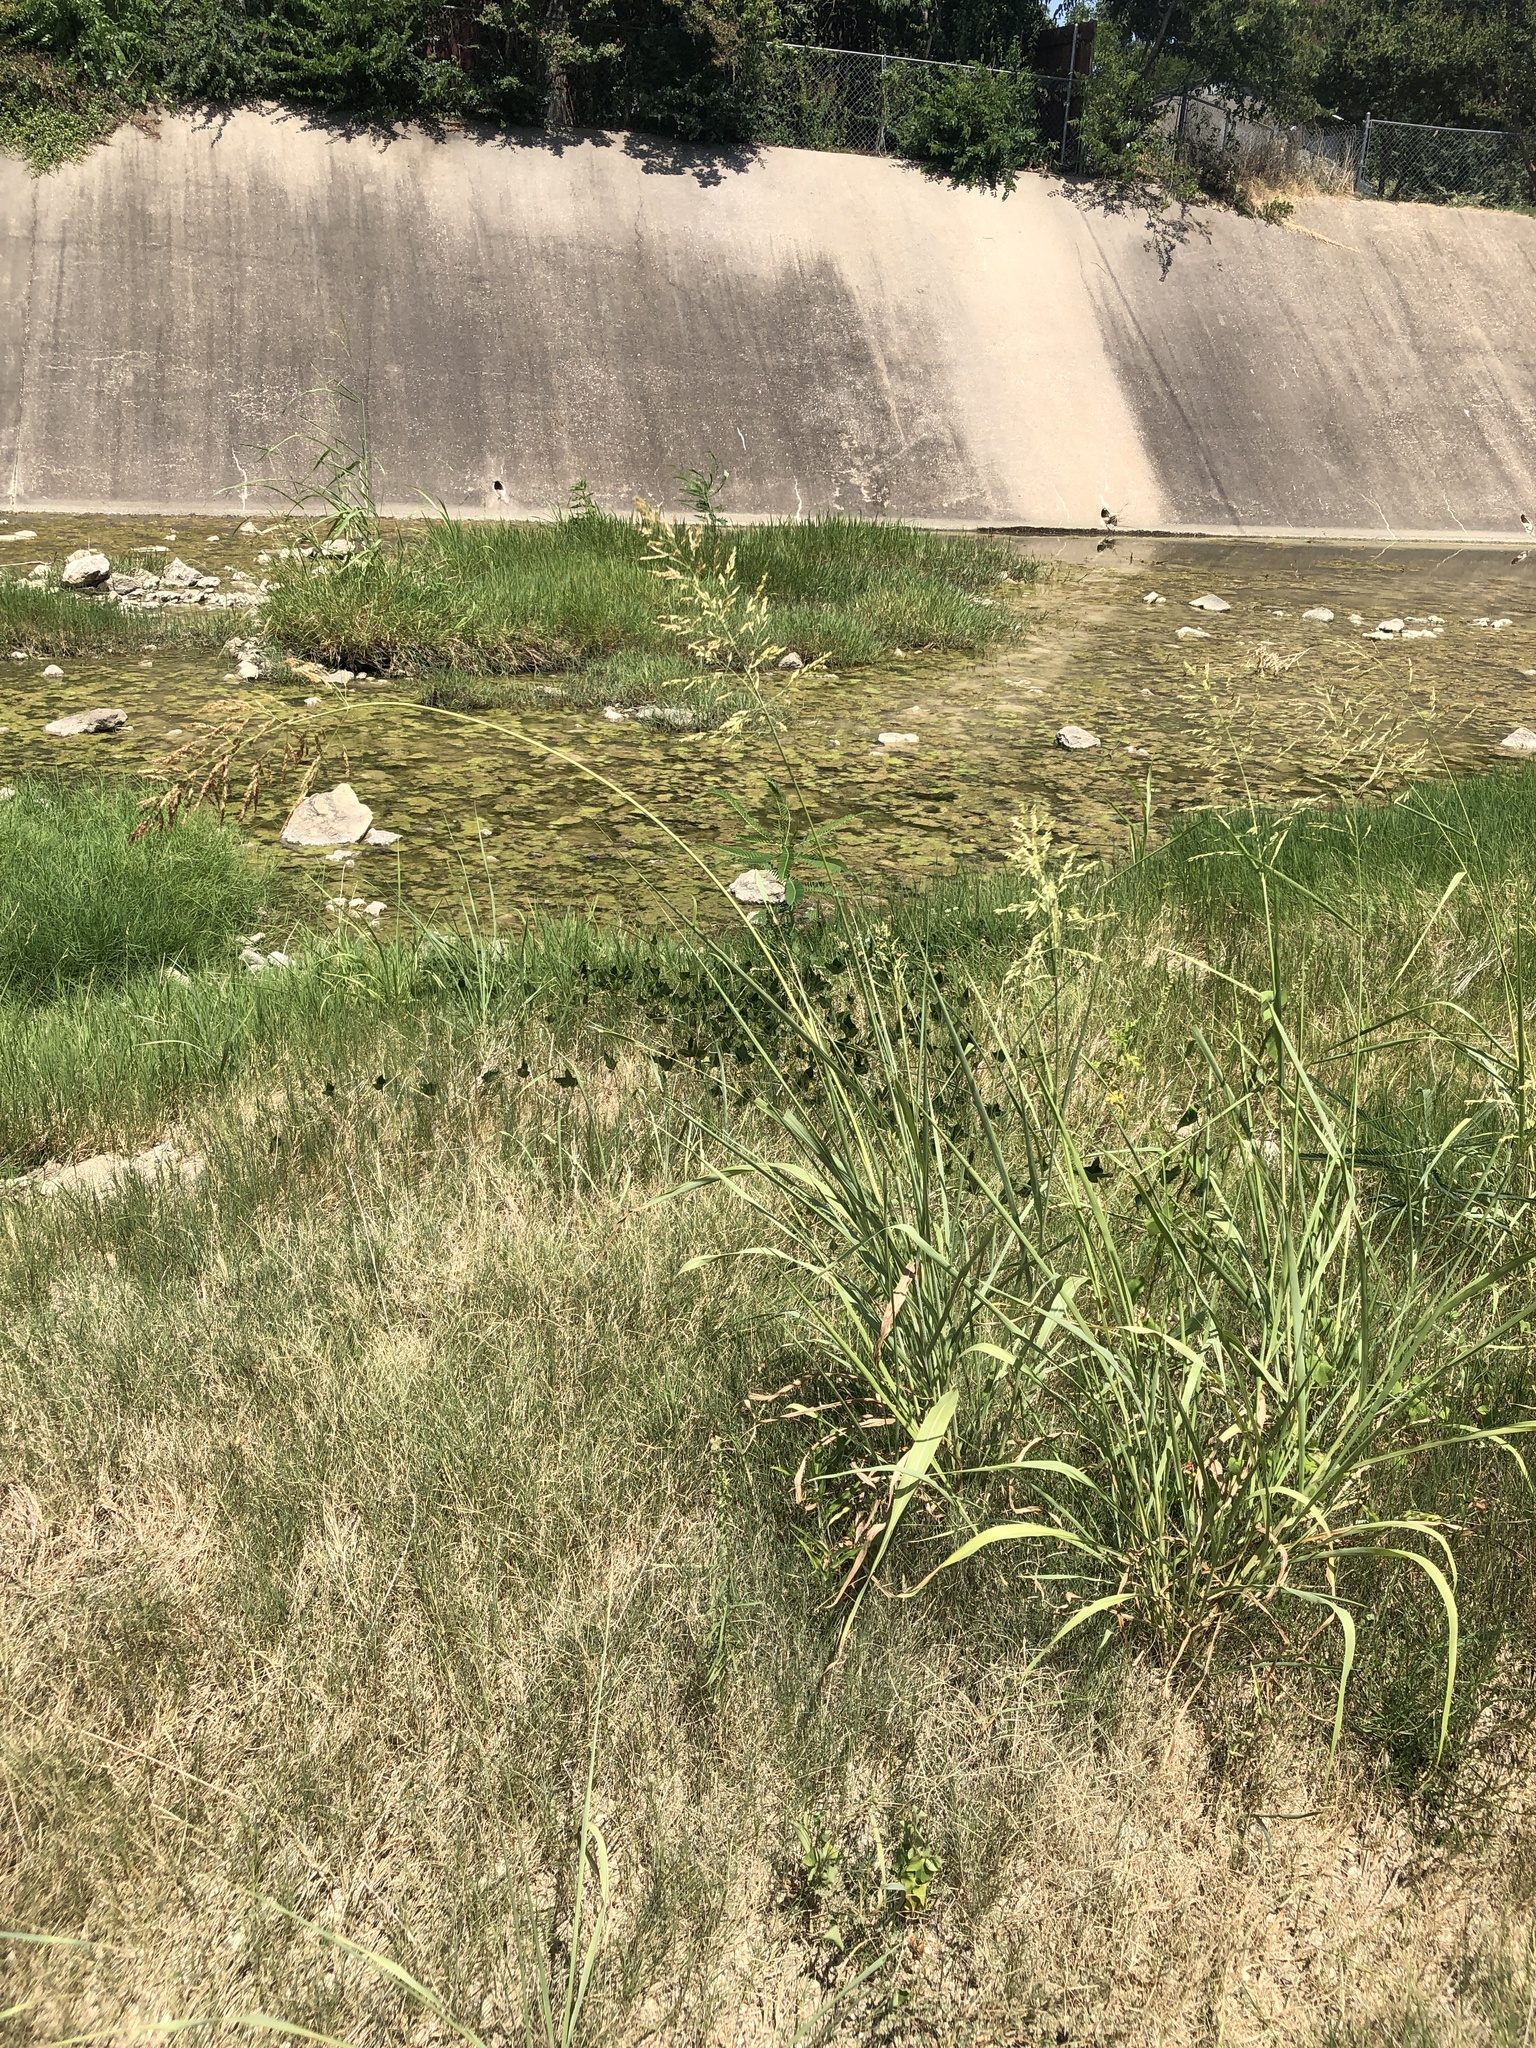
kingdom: Plantae
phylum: Tracheophyta
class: Liliopsida
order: Poales
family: Poaceae
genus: Sorghum
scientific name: Sorghum halepense
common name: Johnson-grass
